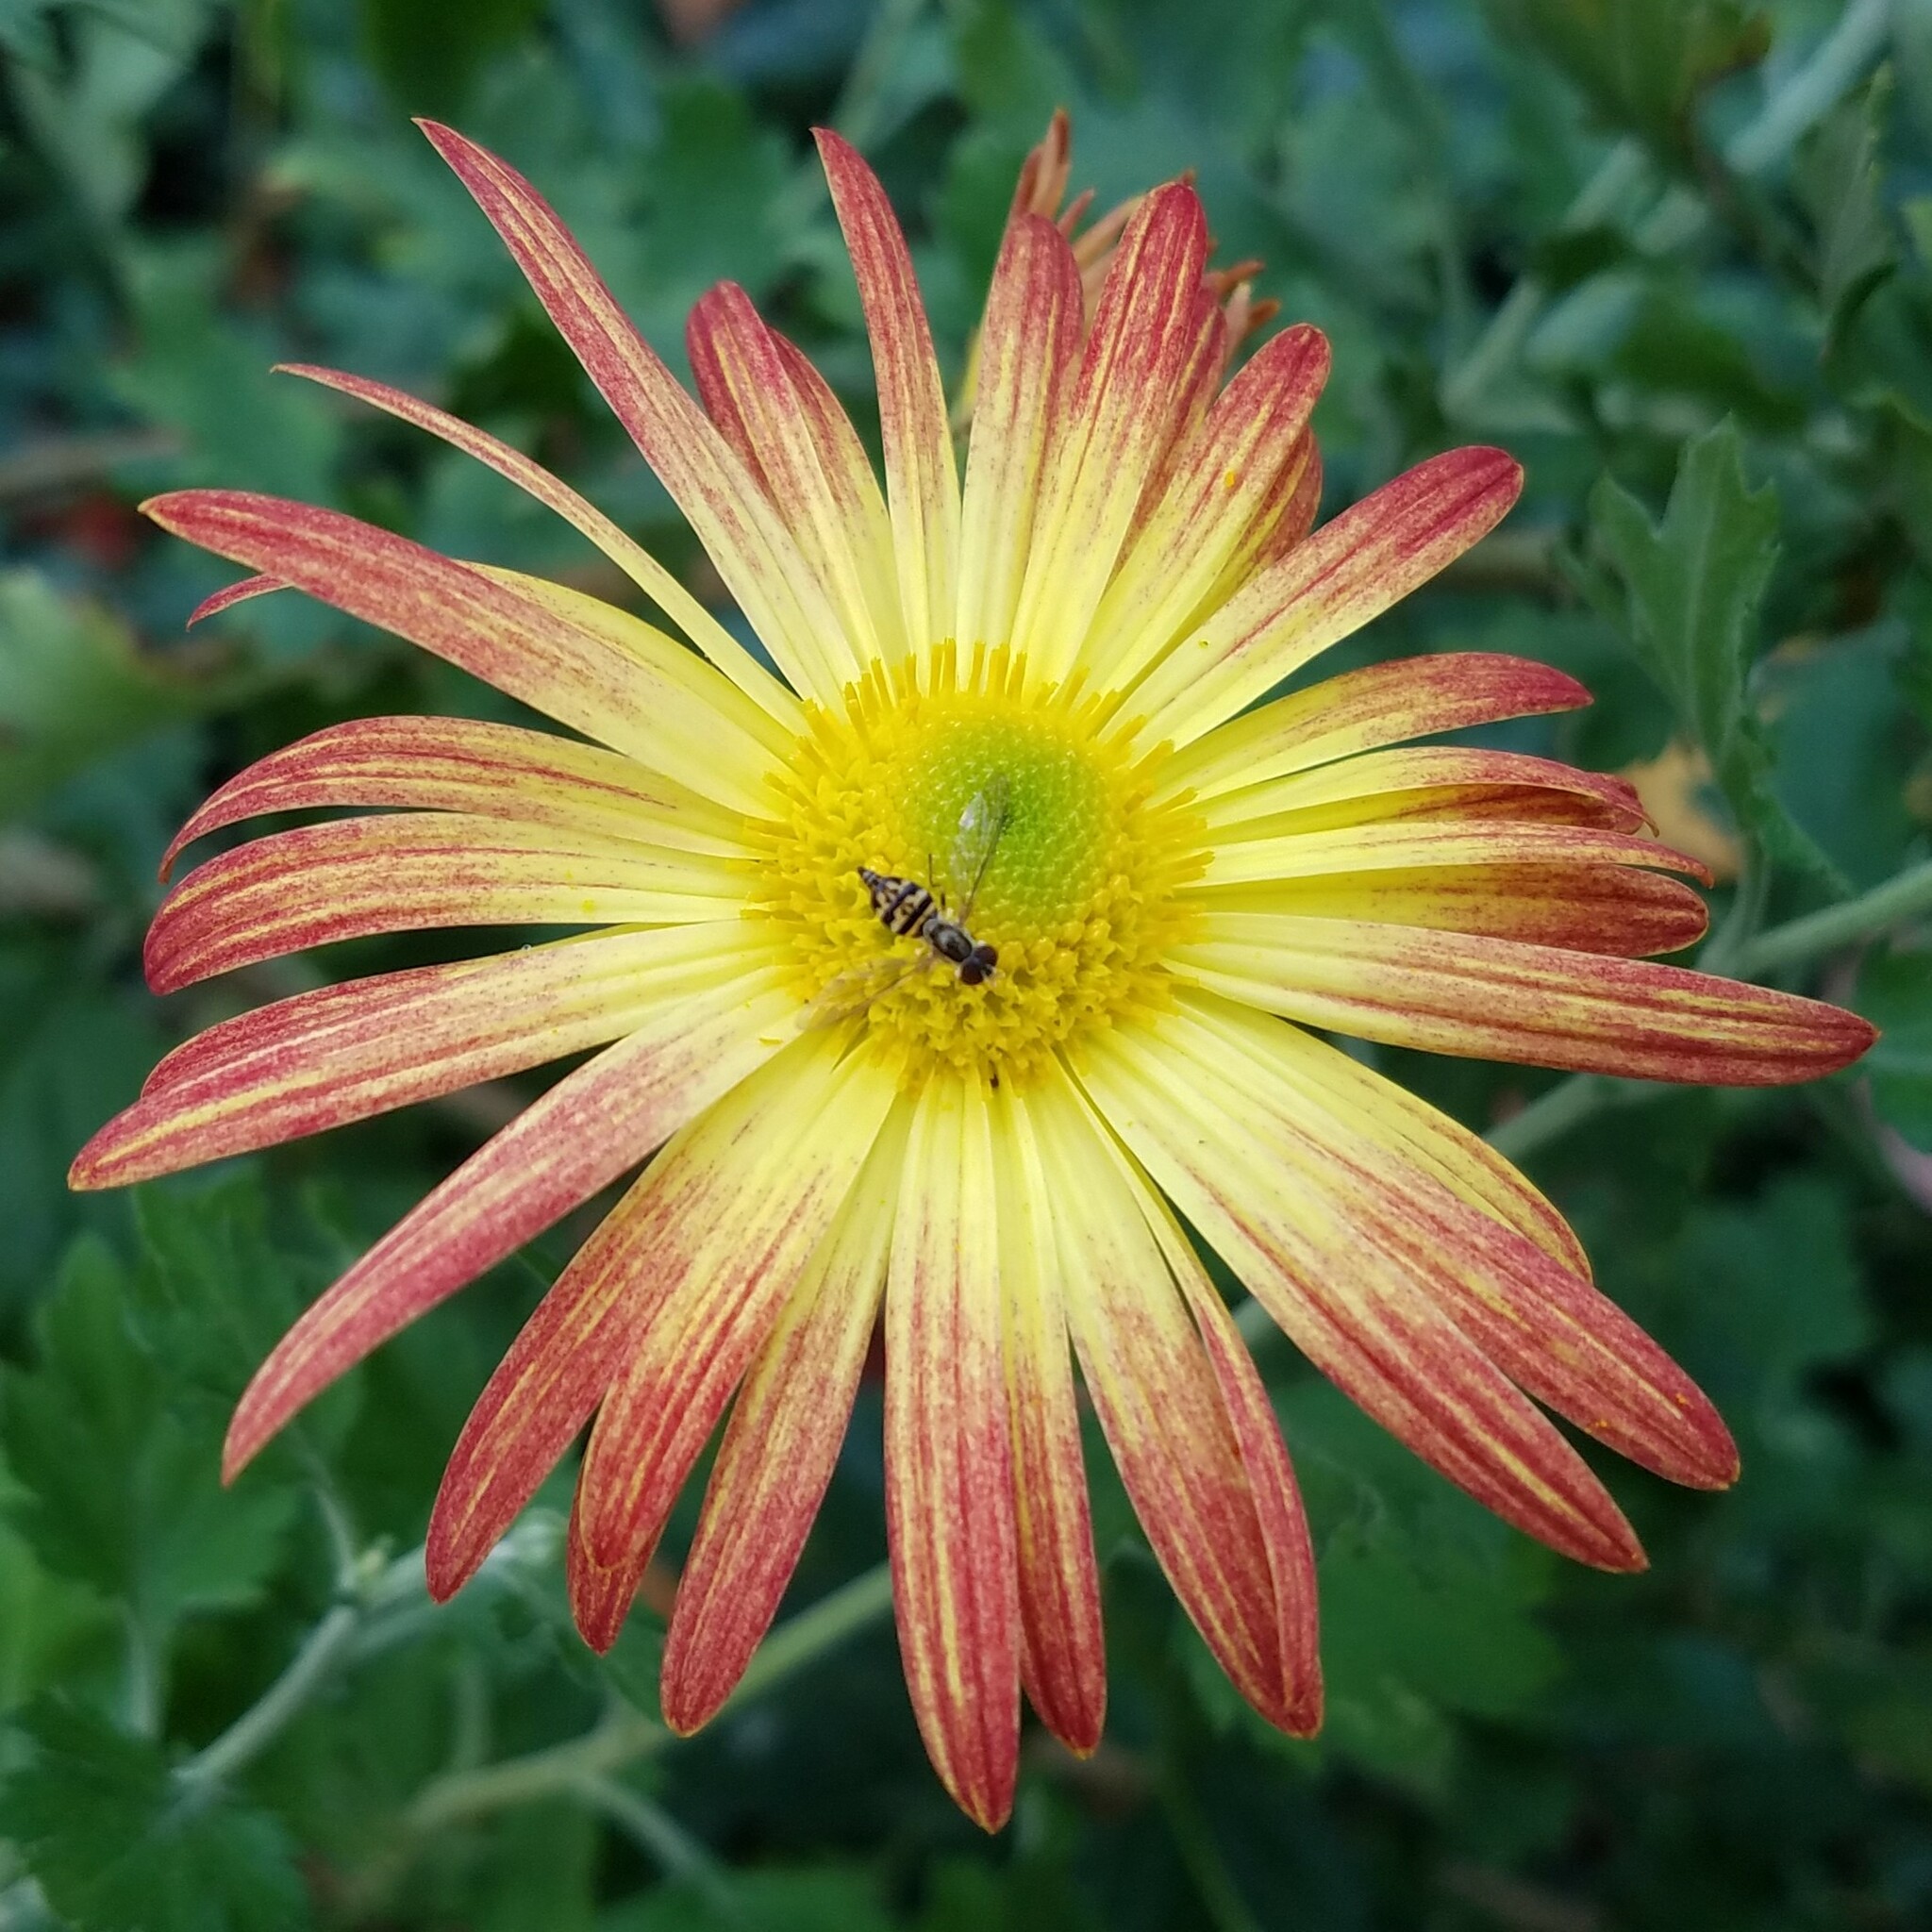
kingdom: Animalia
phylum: Arthropoda
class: Insecta
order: Diptera
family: Syrphidae
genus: Toxomerus
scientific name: Toxomerus geminatus
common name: Eastern calligrapher
